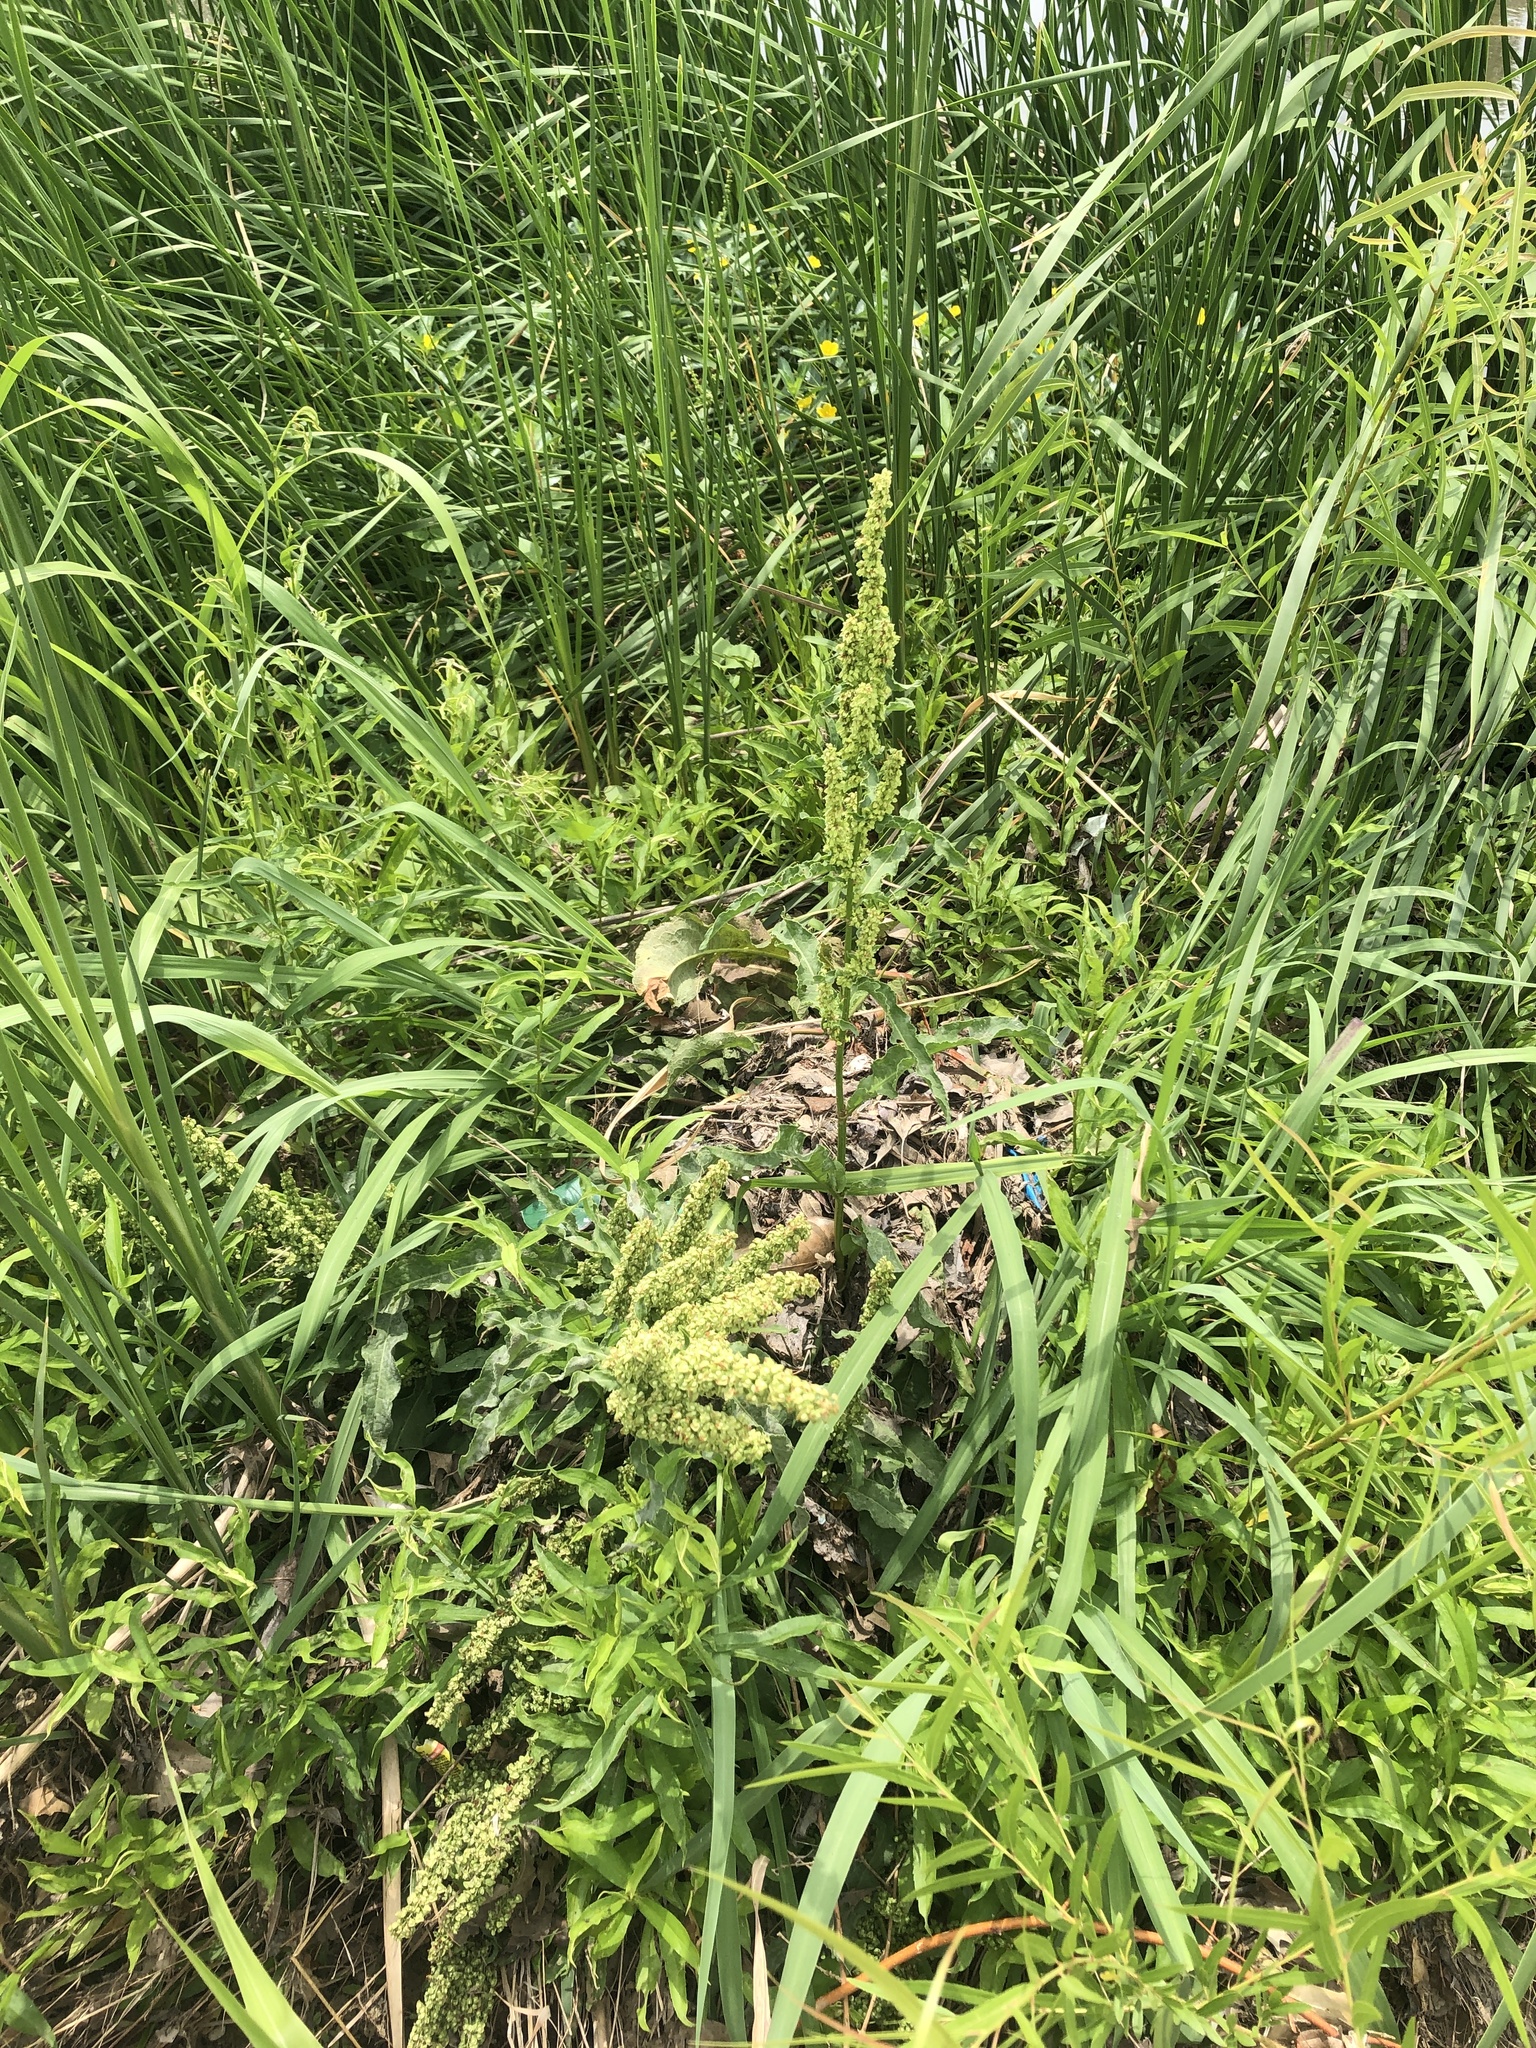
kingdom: Plantae
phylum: Tracheophyta
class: Magnoliopsida
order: Caryophyllales
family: Polygonaceae
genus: Rumex
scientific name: Rumex crispus
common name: Curled dock
